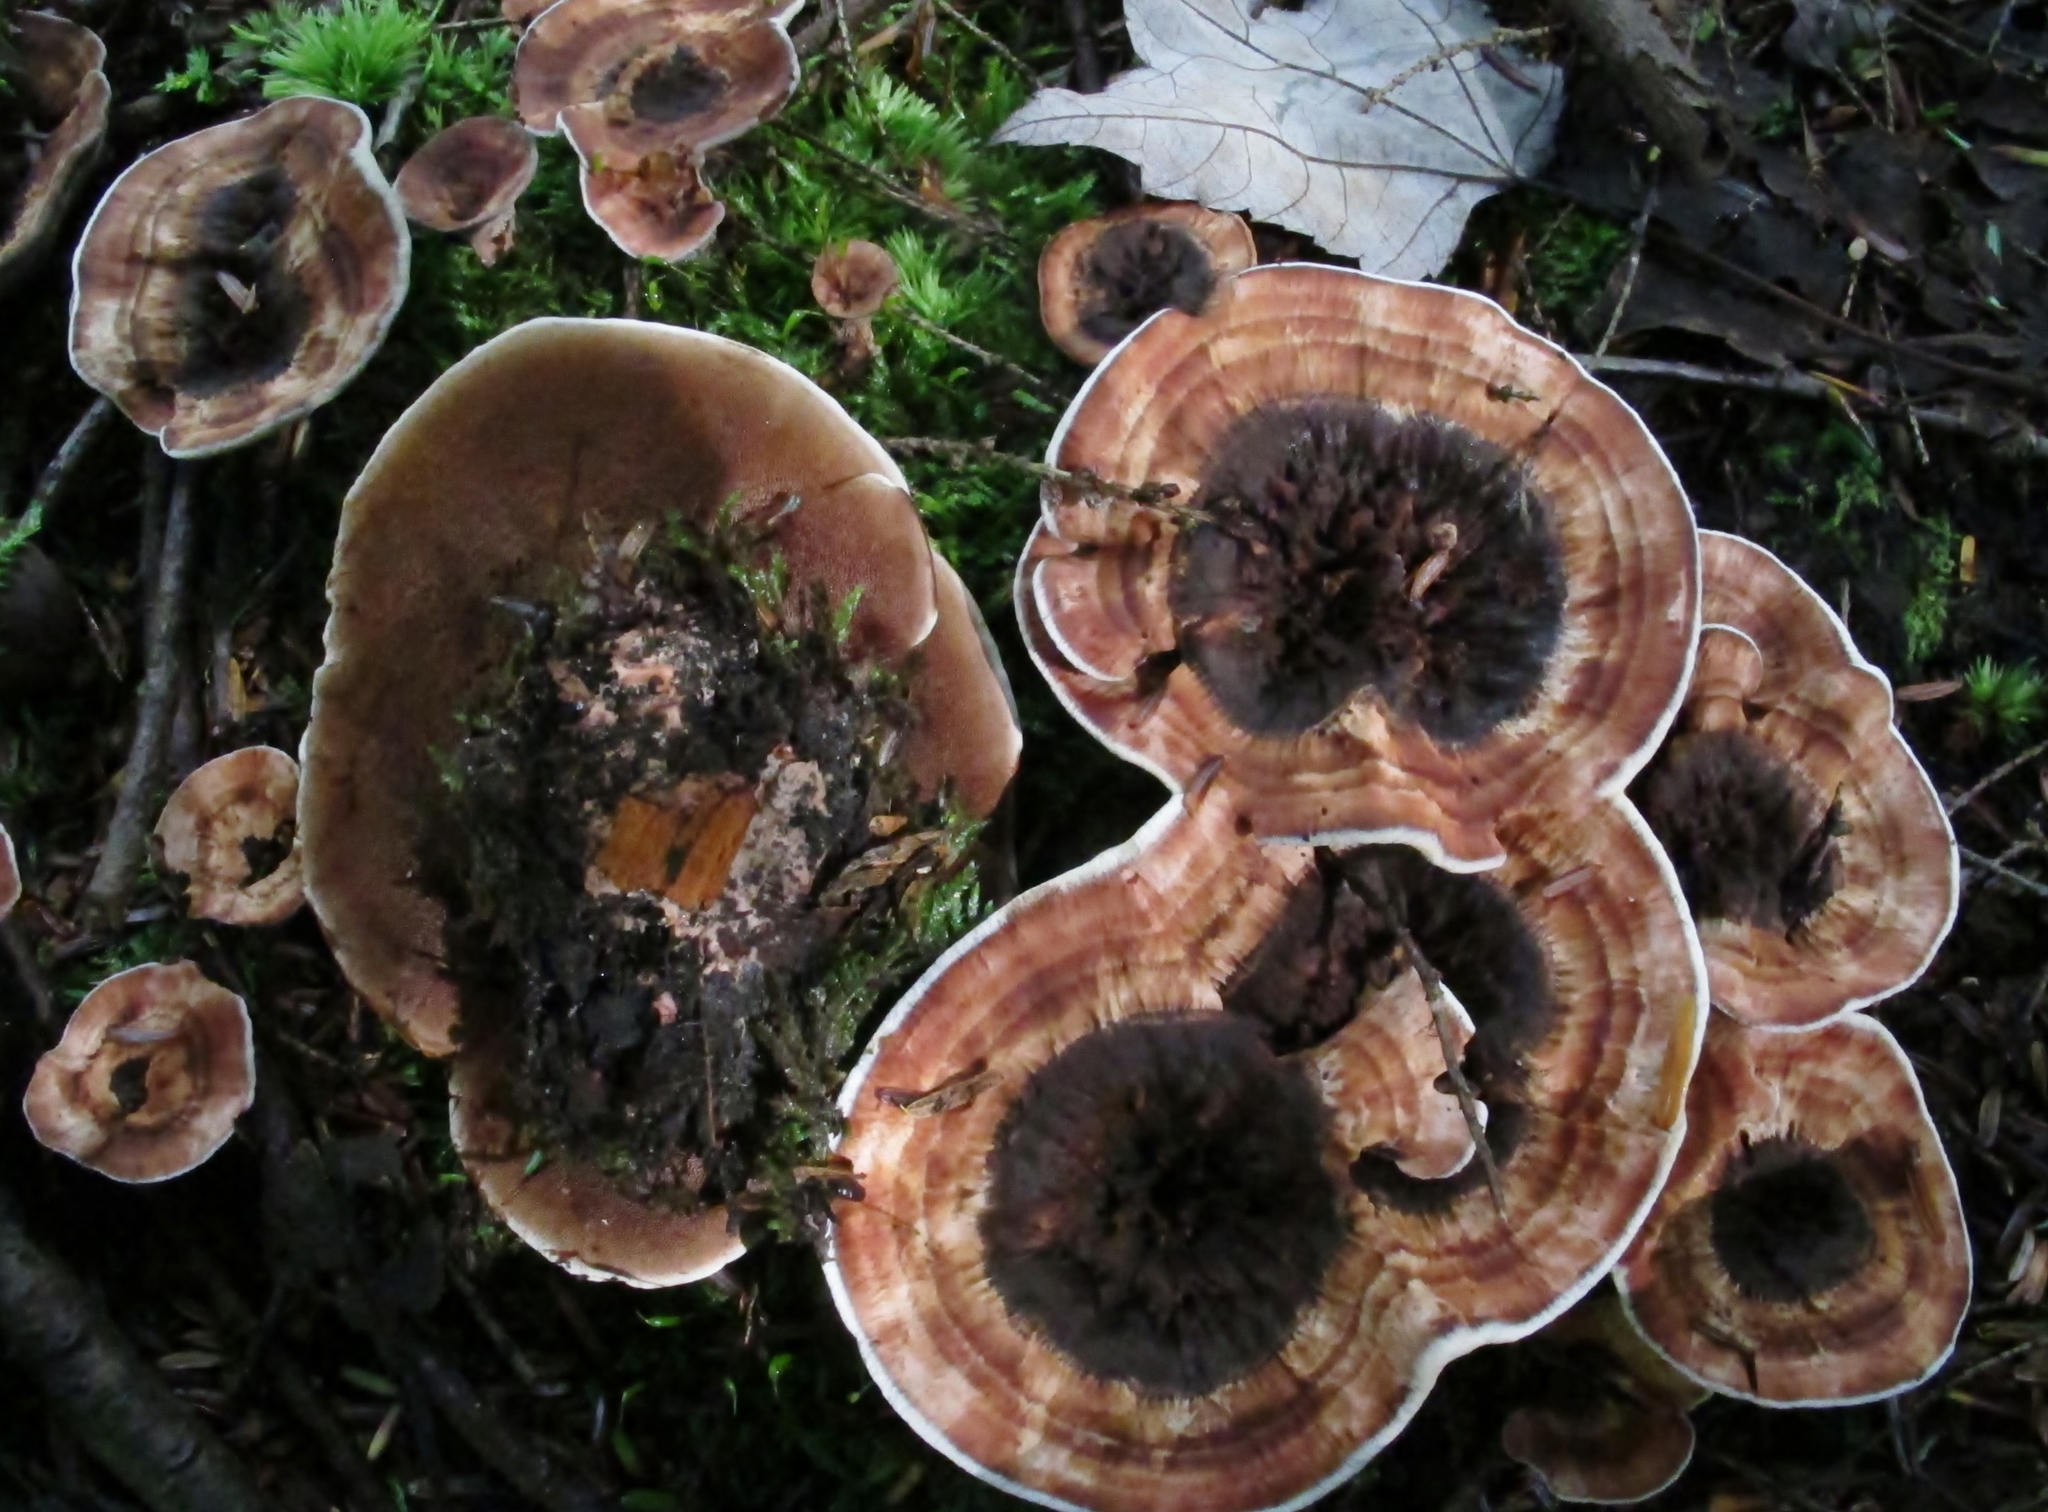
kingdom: Fungi
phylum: Basidiomycota
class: Agaricomycetes
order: Thelephorales
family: Bankeraceae
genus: Hydnellum
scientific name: Hydnellum scrobiculatum
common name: Ridged tooth
